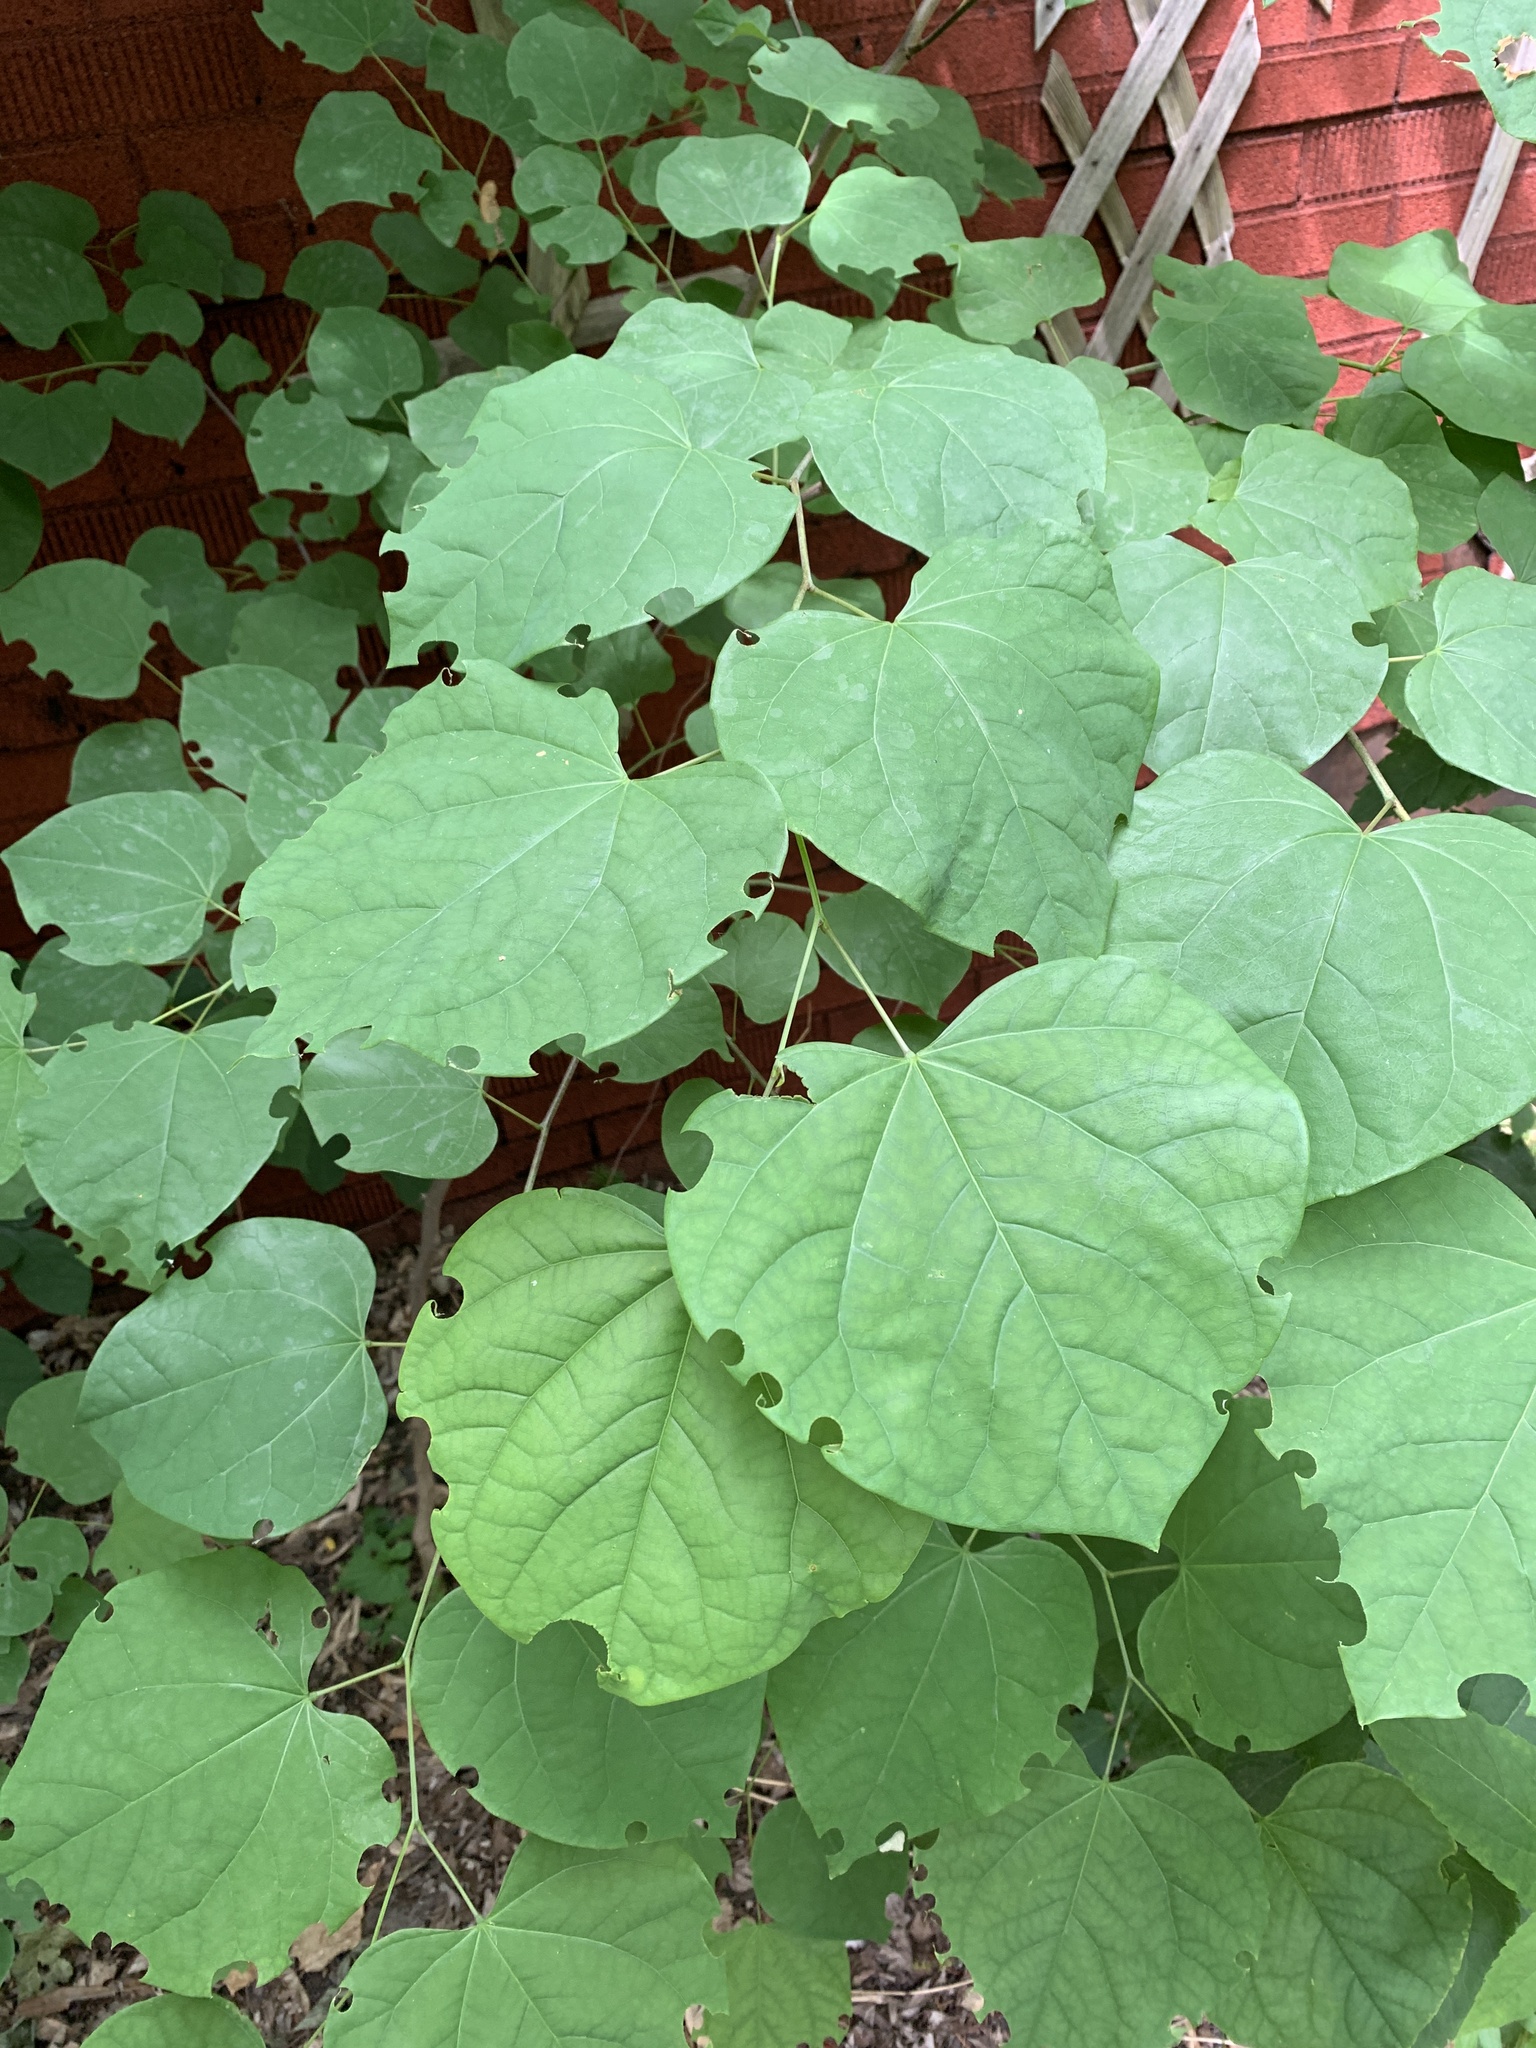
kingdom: Plantae
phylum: Tracheophyta
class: Magnoliopsida
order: Fabales
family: Fabaceae
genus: Cercis
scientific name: Cercis canadensis
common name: Eastern redbud
